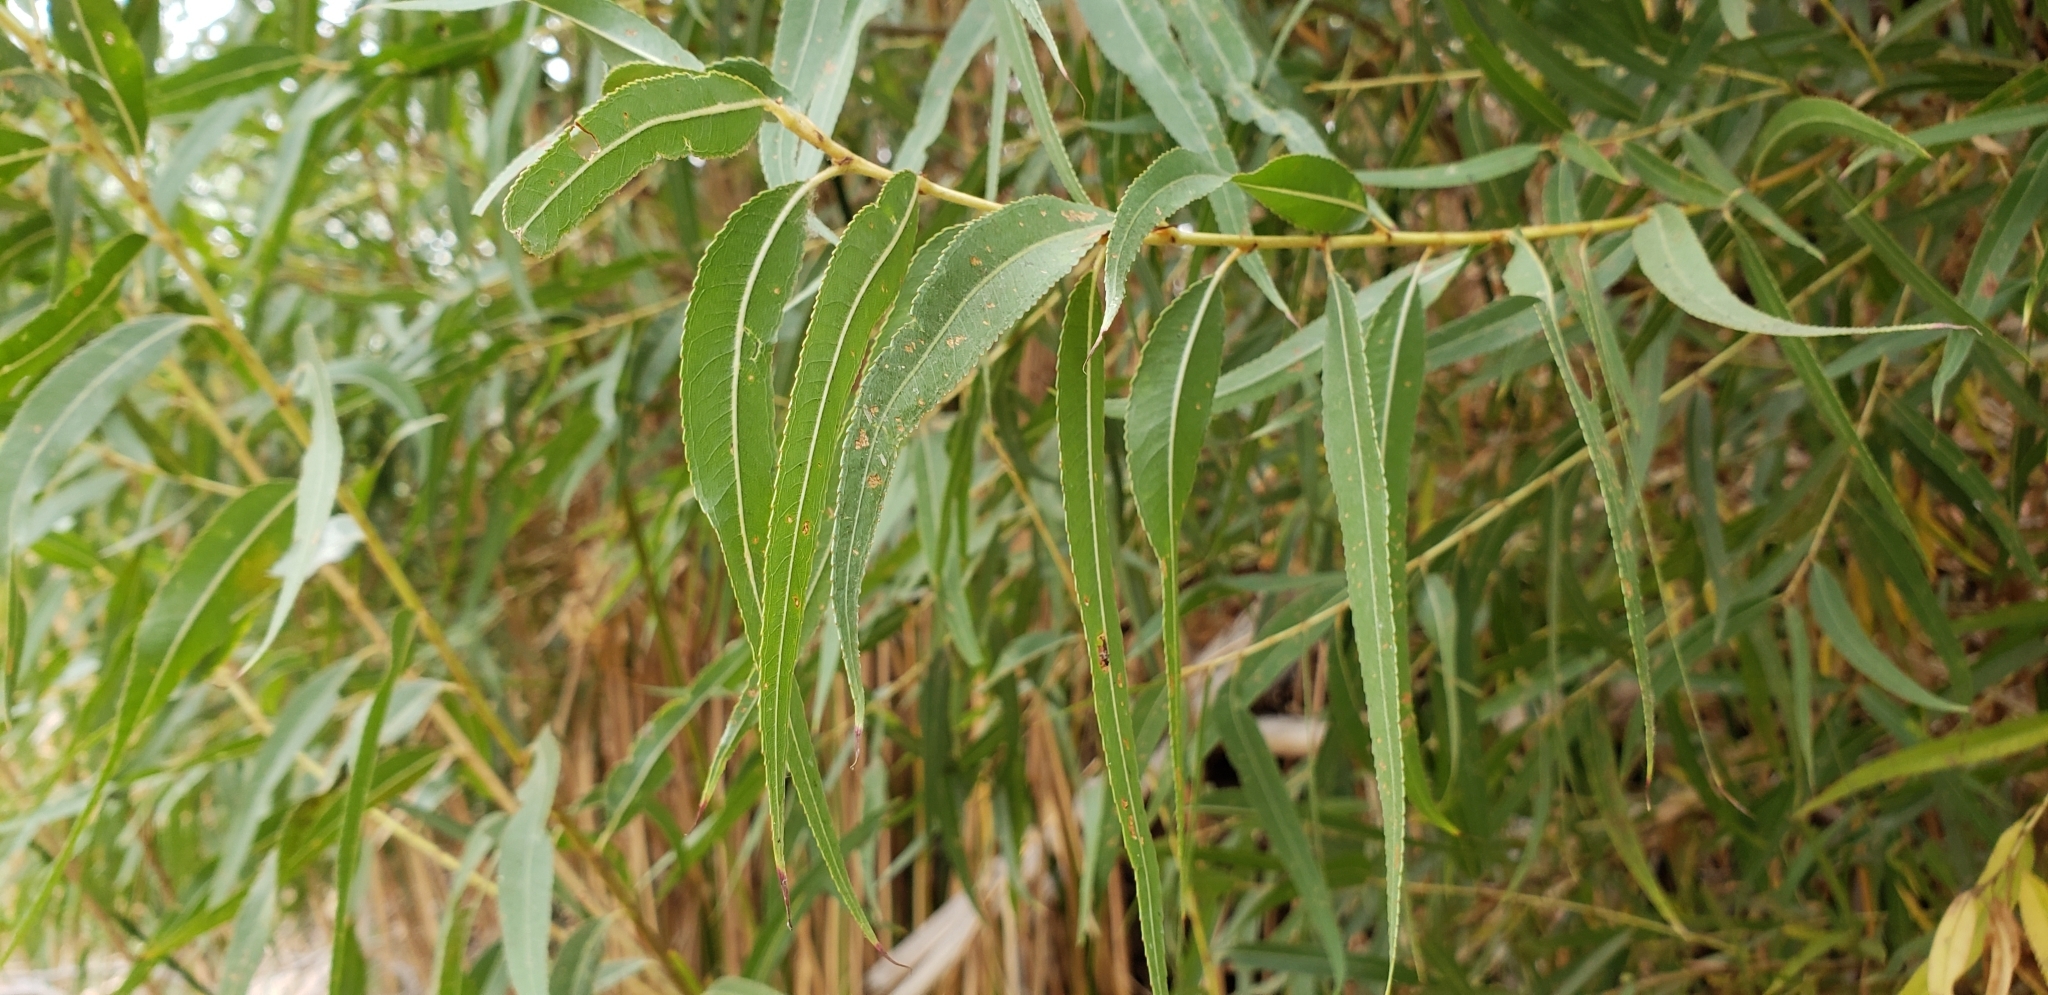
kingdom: Plantae
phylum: Tracheophyta
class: Magnoliopsida
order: Malpighiales
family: Salicaceae
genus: Salix
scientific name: Salix gooddingii
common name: Goodding's willow
